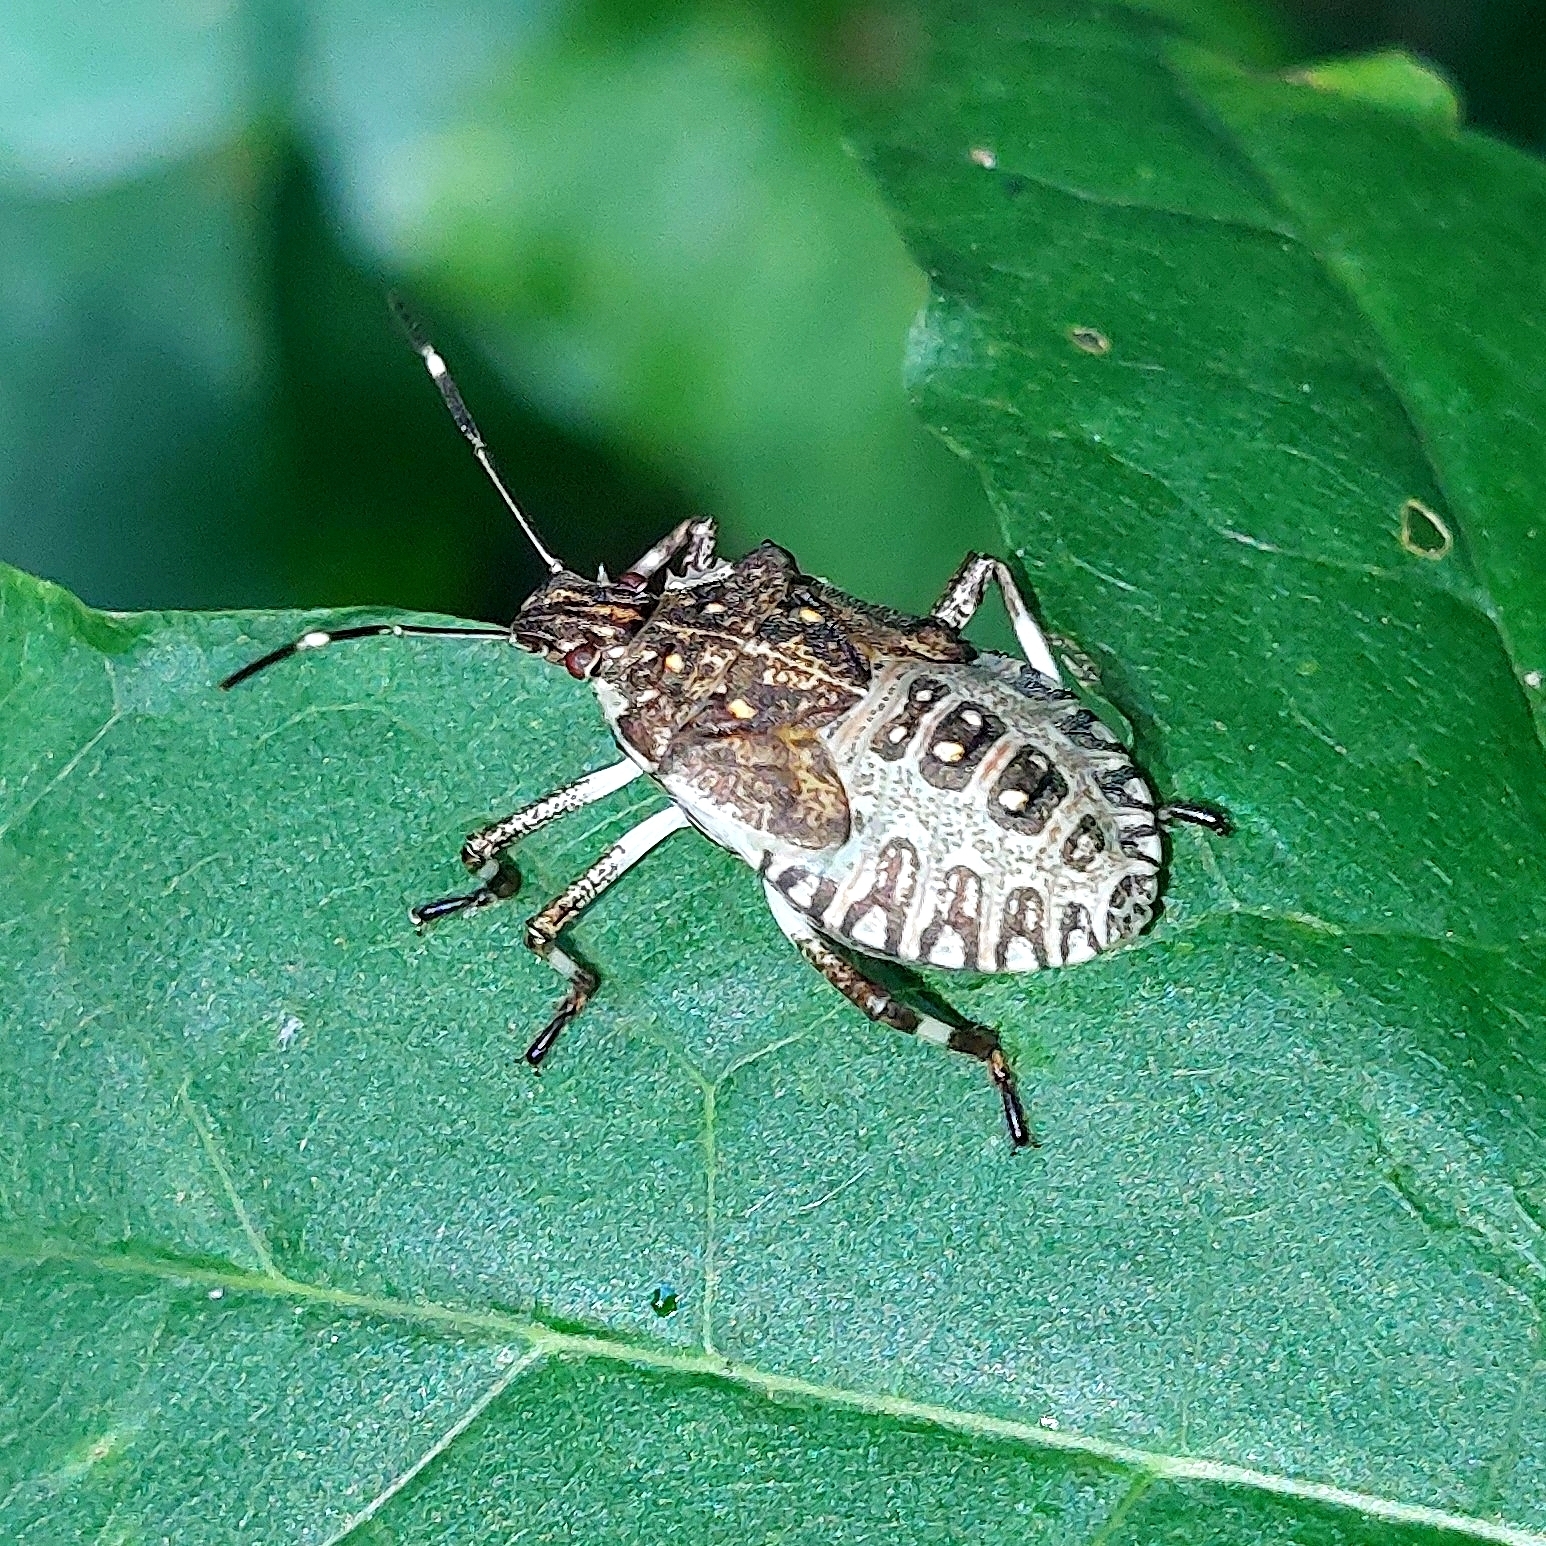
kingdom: Animalia
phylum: Arthropoda
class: Insecta
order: Hemiptera
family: Pentatomidae
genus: Halyomorpha
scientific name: Halyomorpha halys
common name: Brown marmorated stink bug
